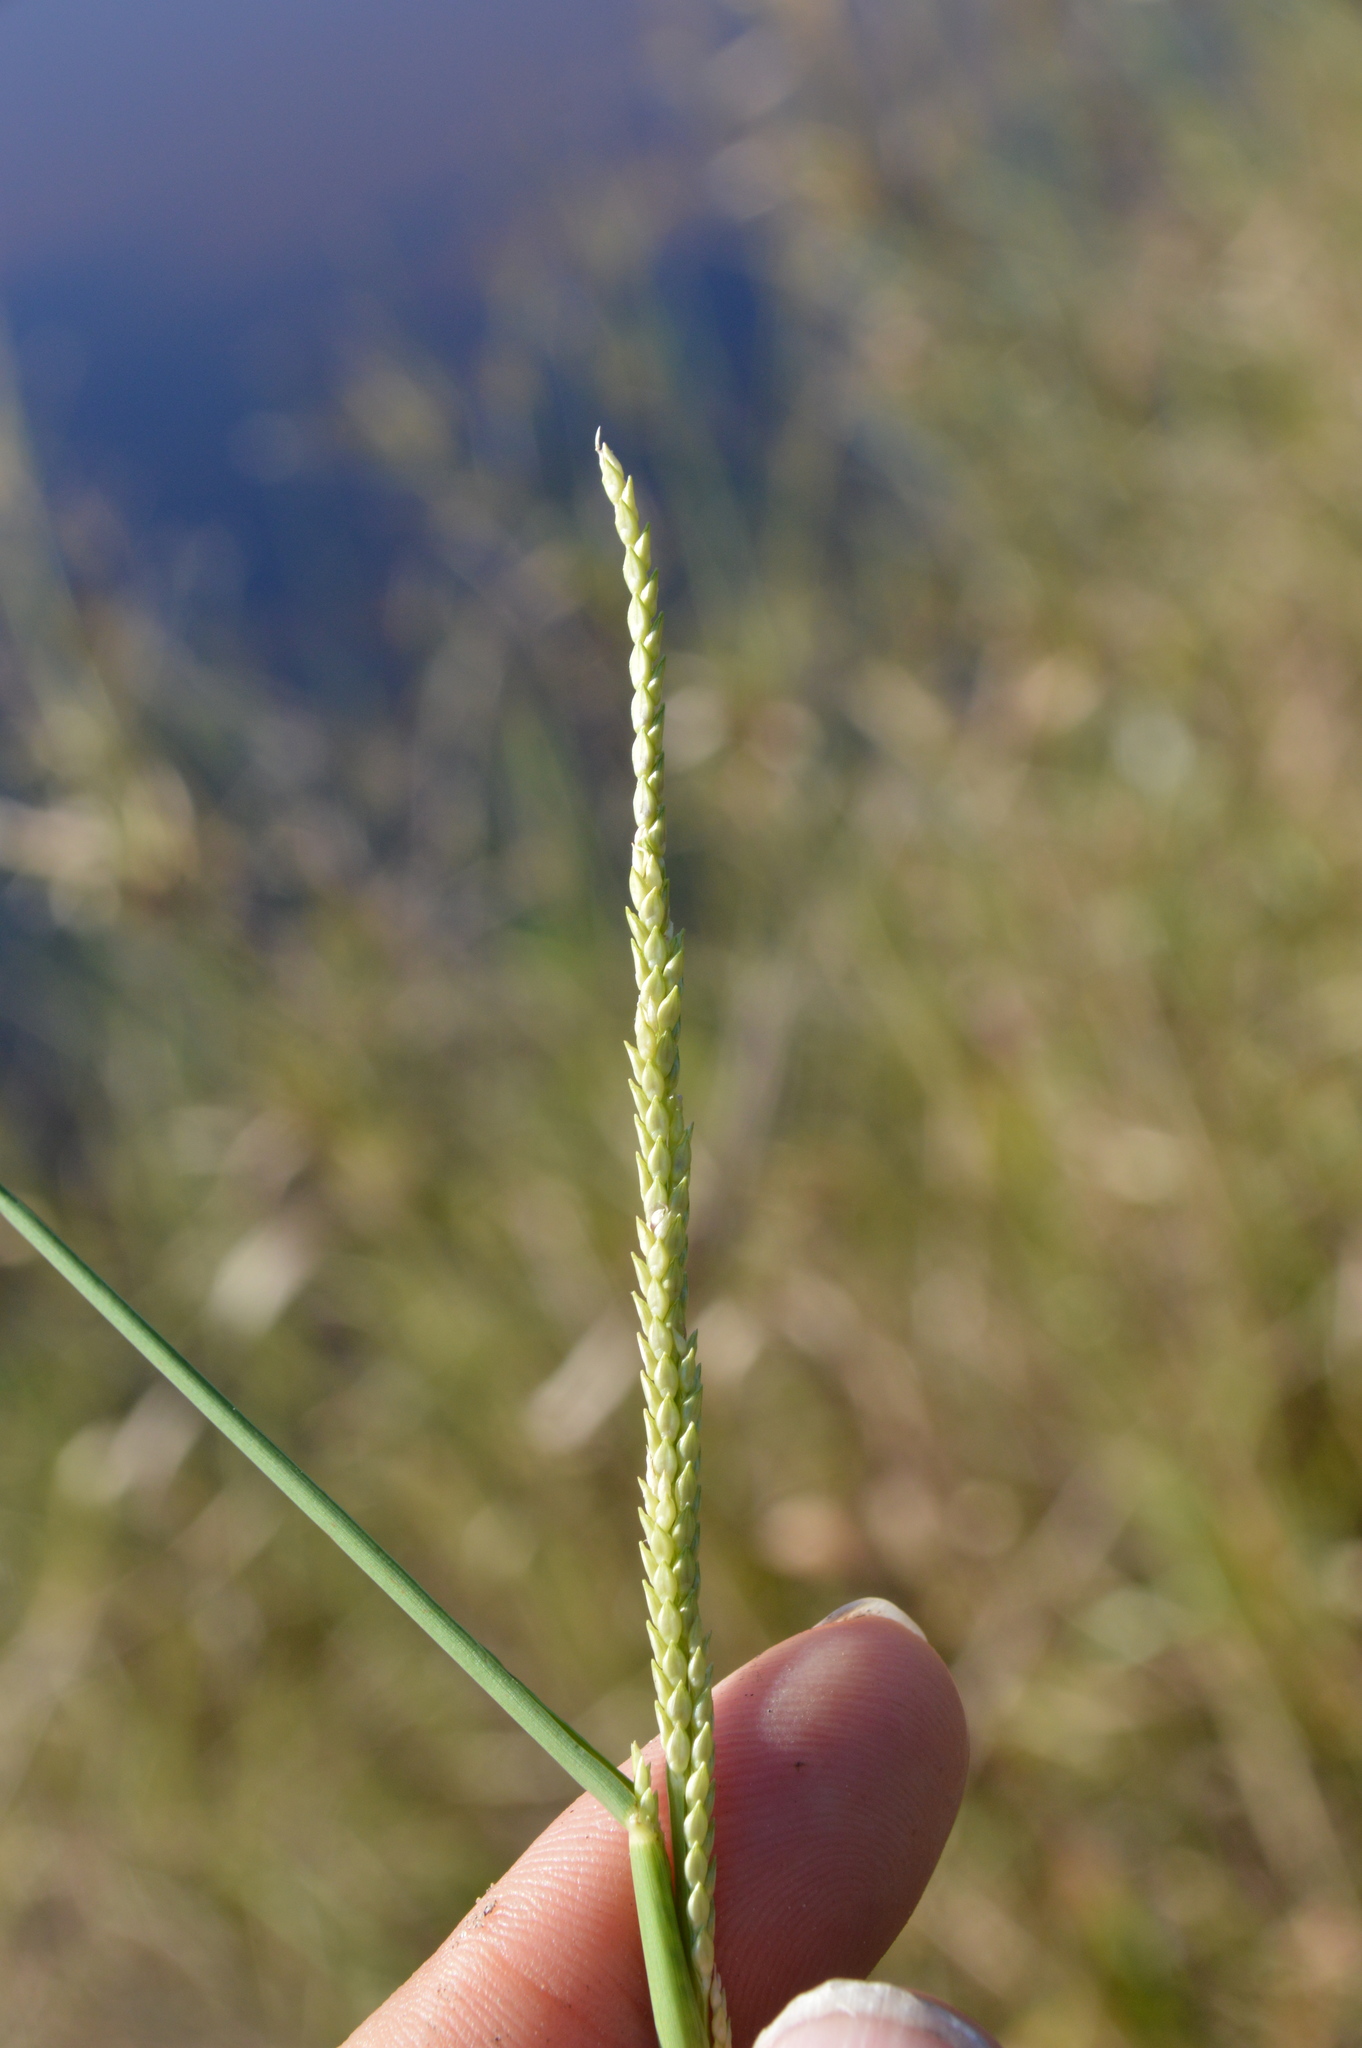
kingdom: Plantae
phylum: Tracheophyta
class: Liliopsida
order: Poales
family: Poaceae
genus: Setaria
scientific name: Setaria geminata
